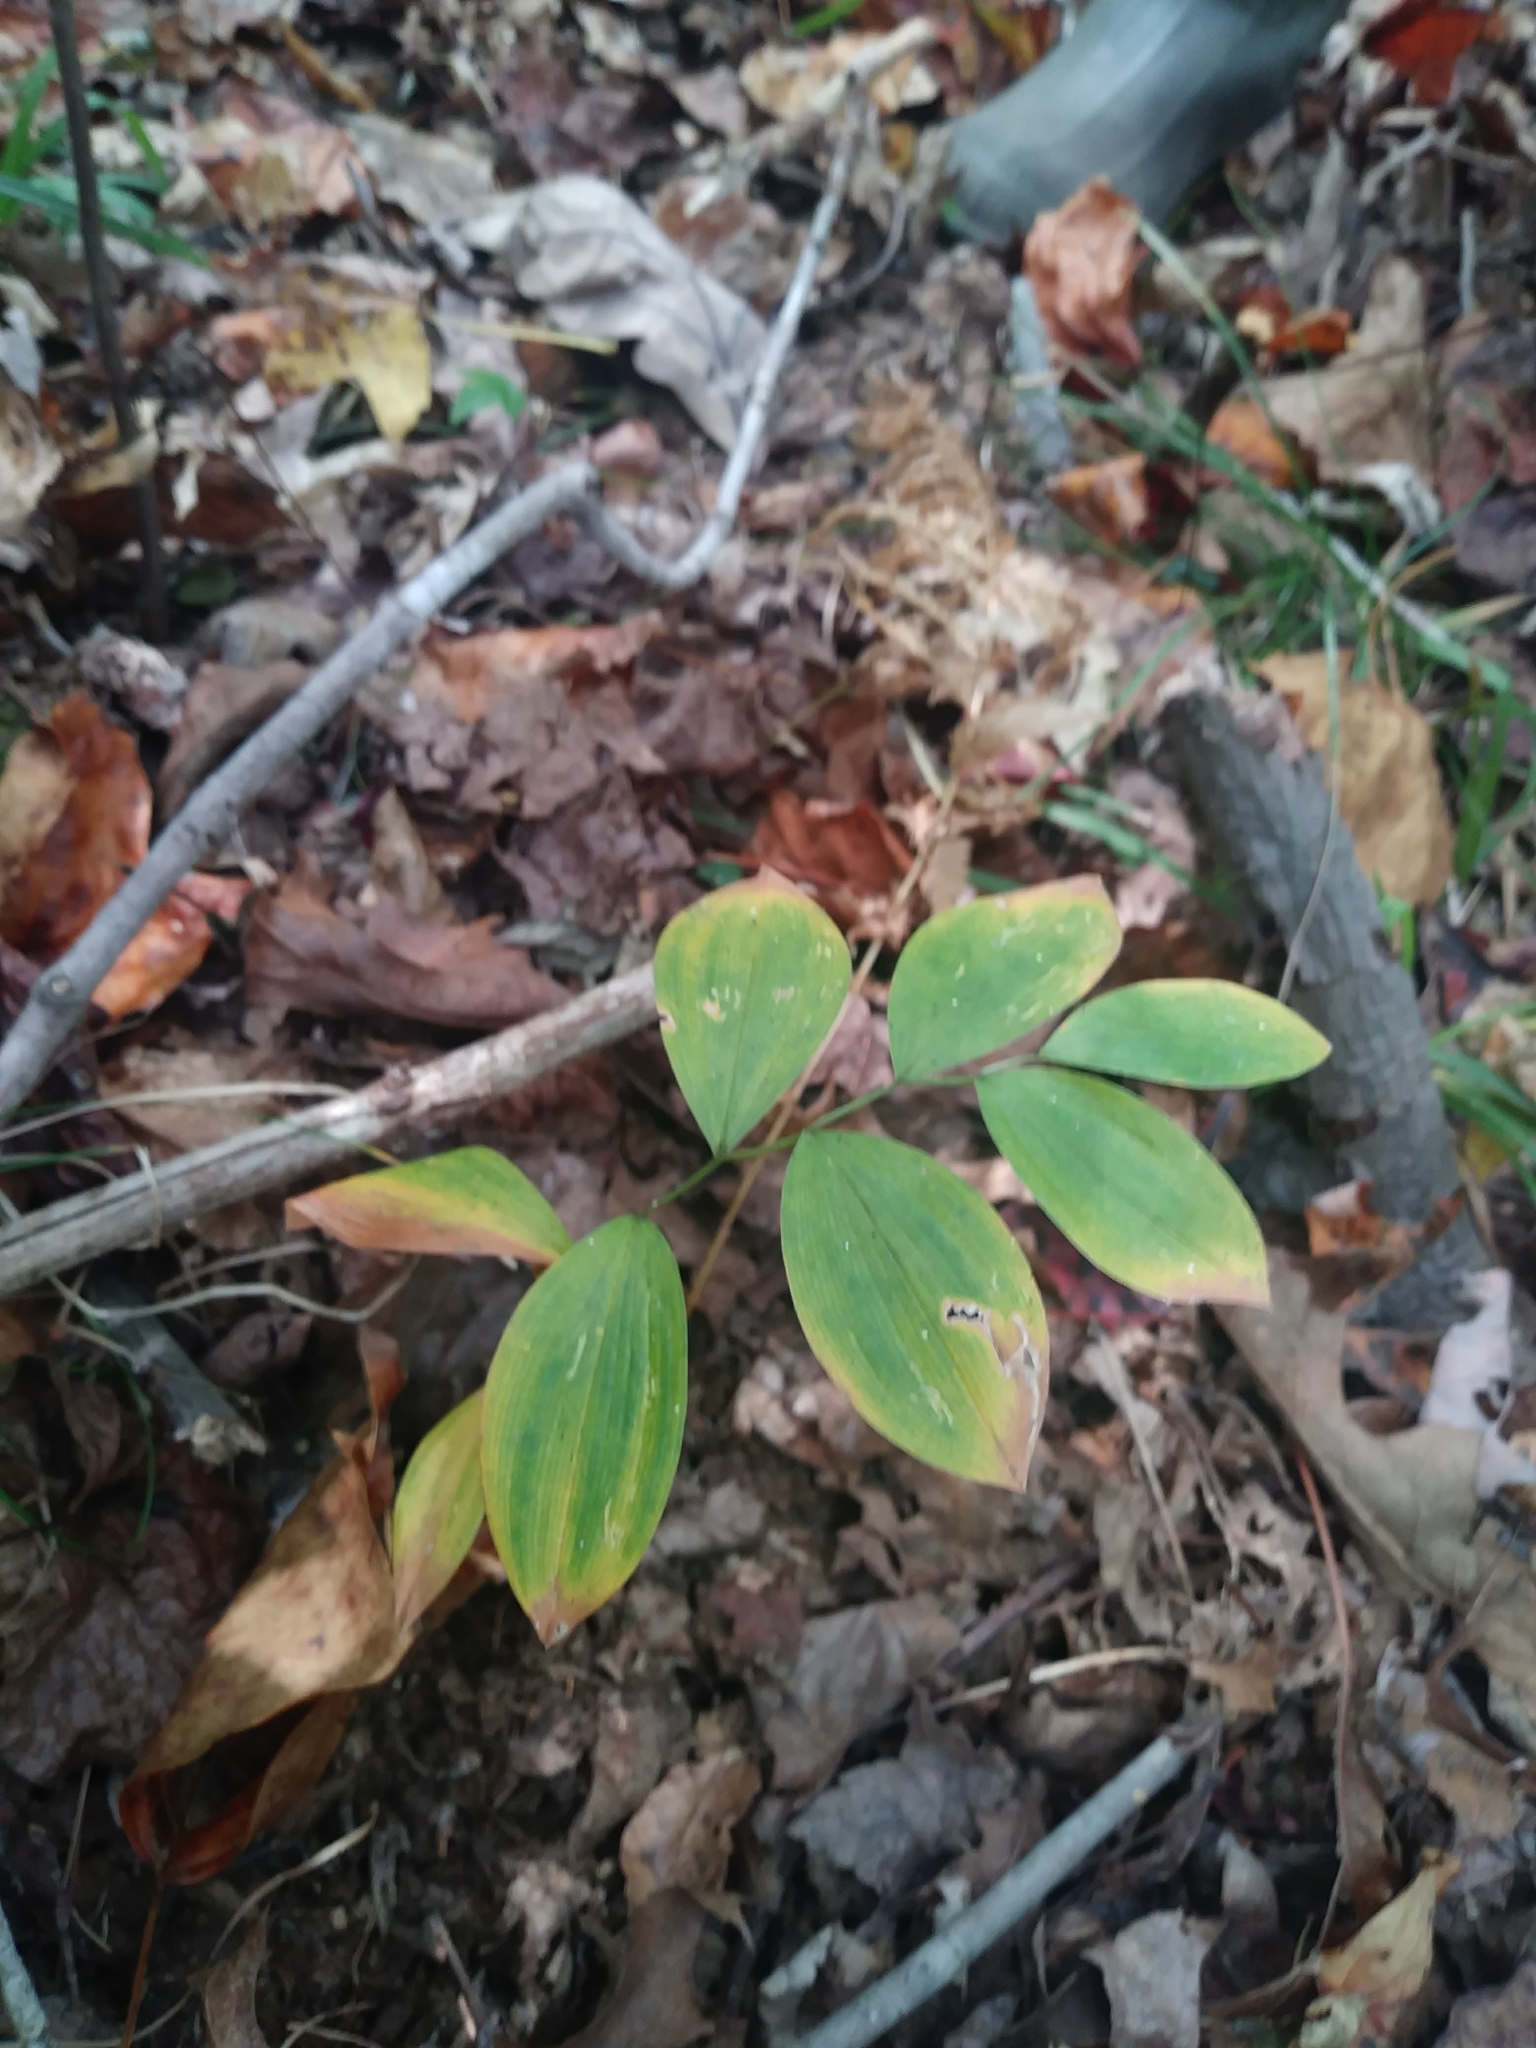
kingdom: Plantae
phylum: Tracheophyta
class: Liliopsida
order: Liliales
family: Colchicaceae
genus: Uvularia
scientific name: Uvularia sessilifolia
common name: Straw-lily
